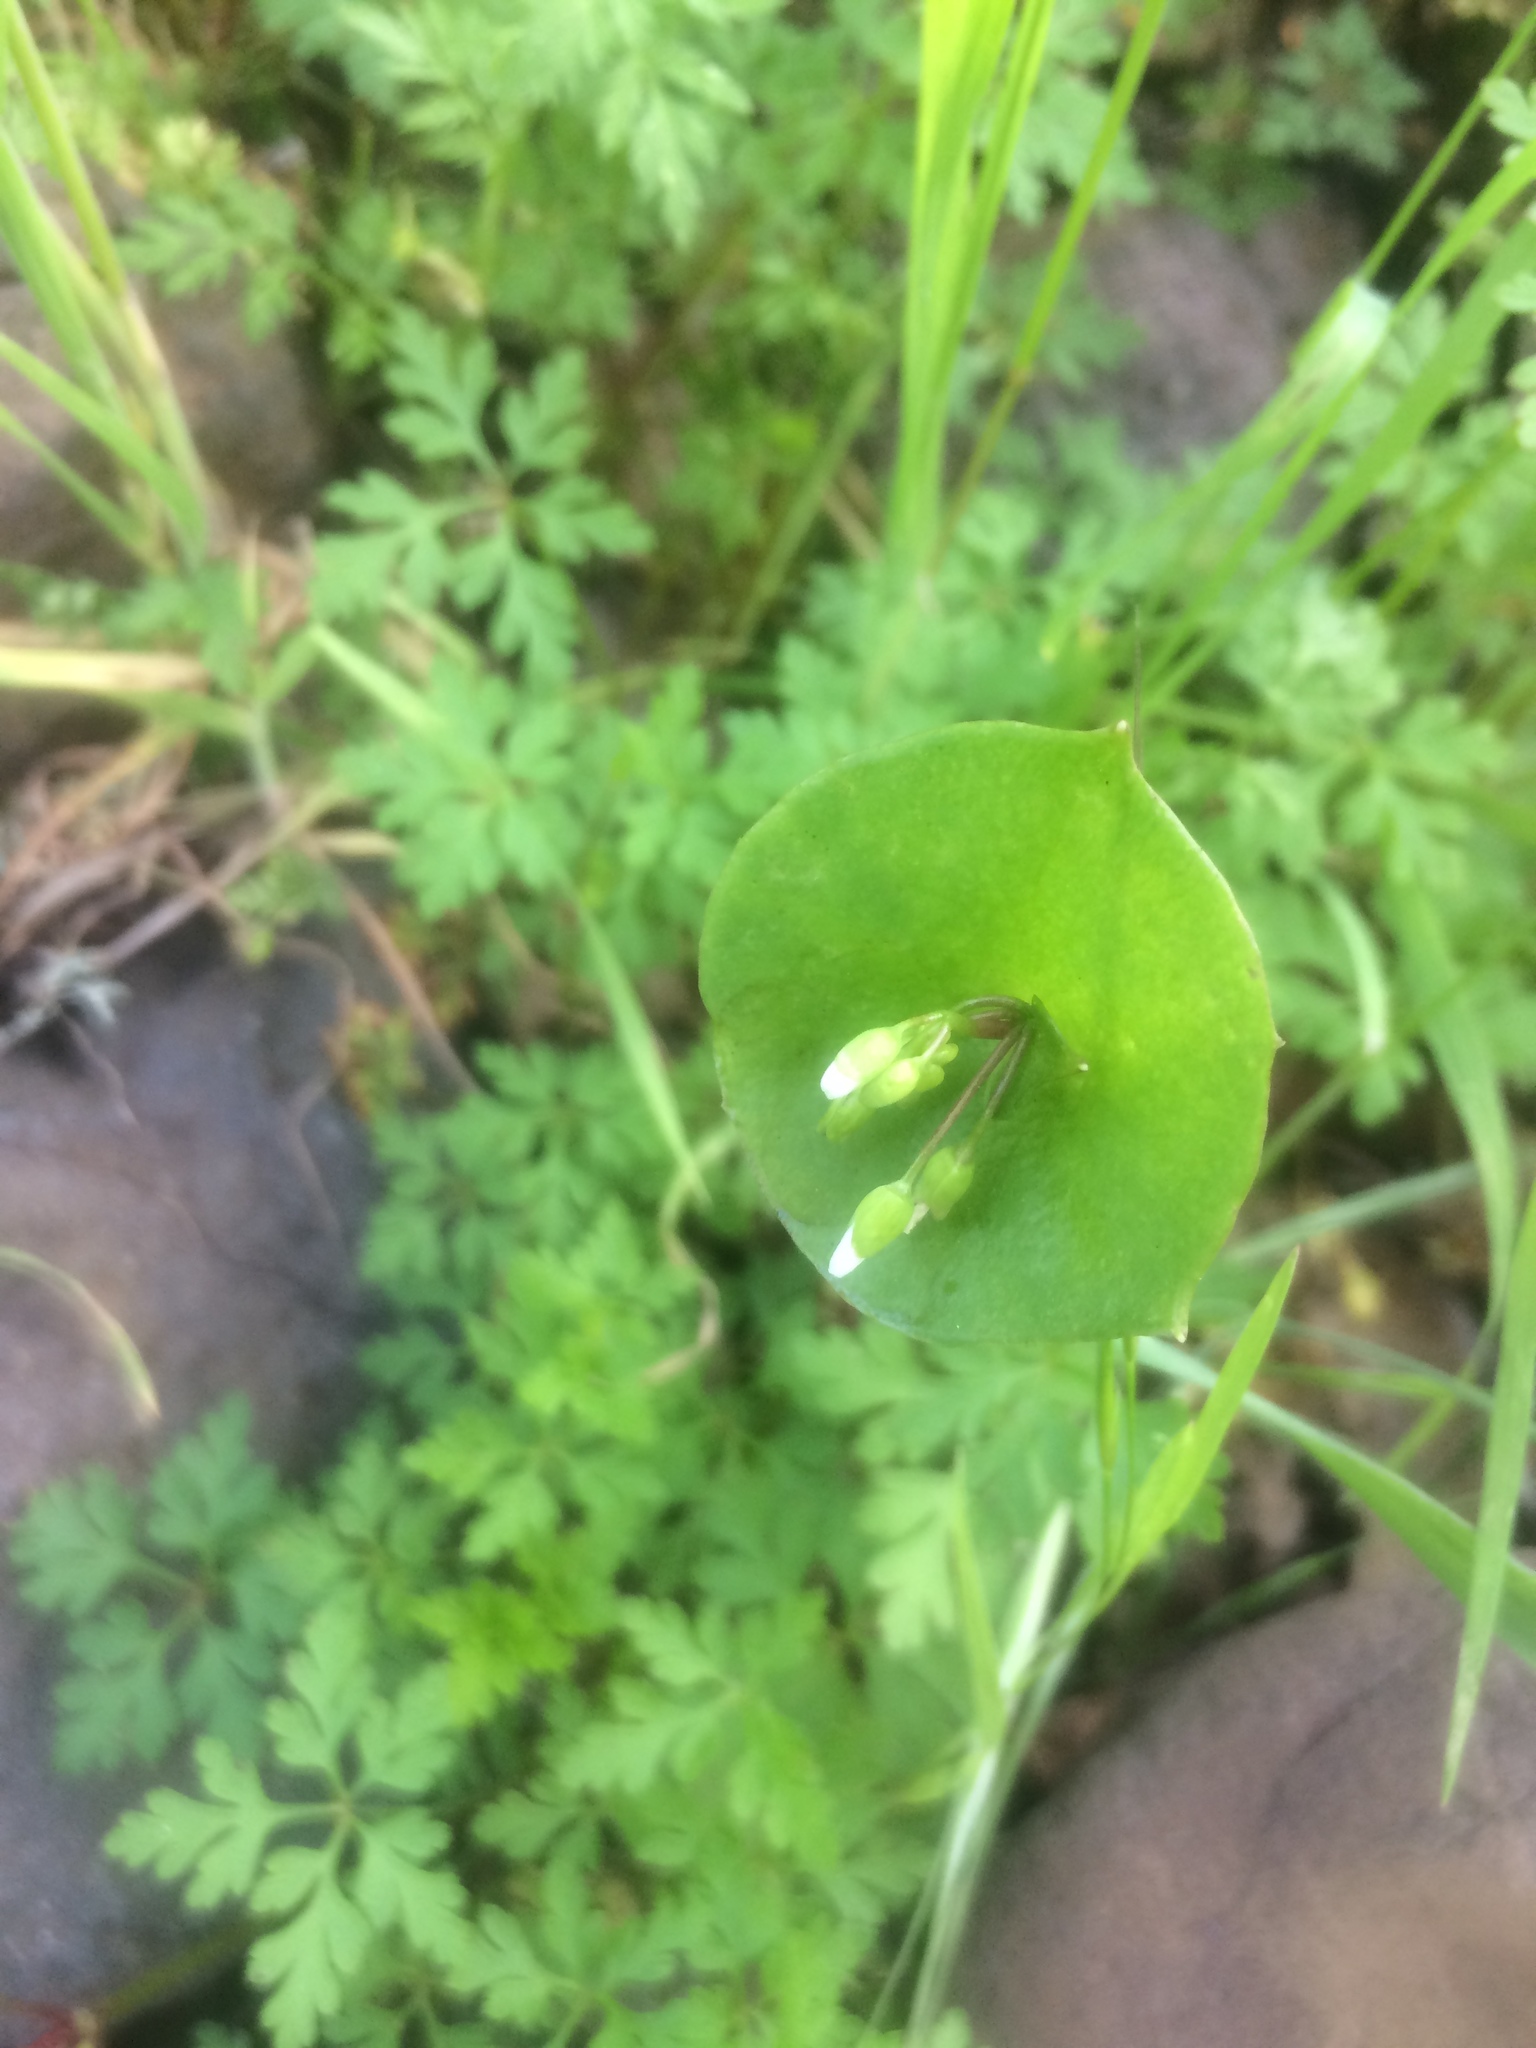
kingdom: Plantae
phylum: Tracheophyta
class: Magnoliopsida
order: Caryophyllales
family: Montiaceae
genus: Claytonia
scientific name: Claytonia perfoliata
